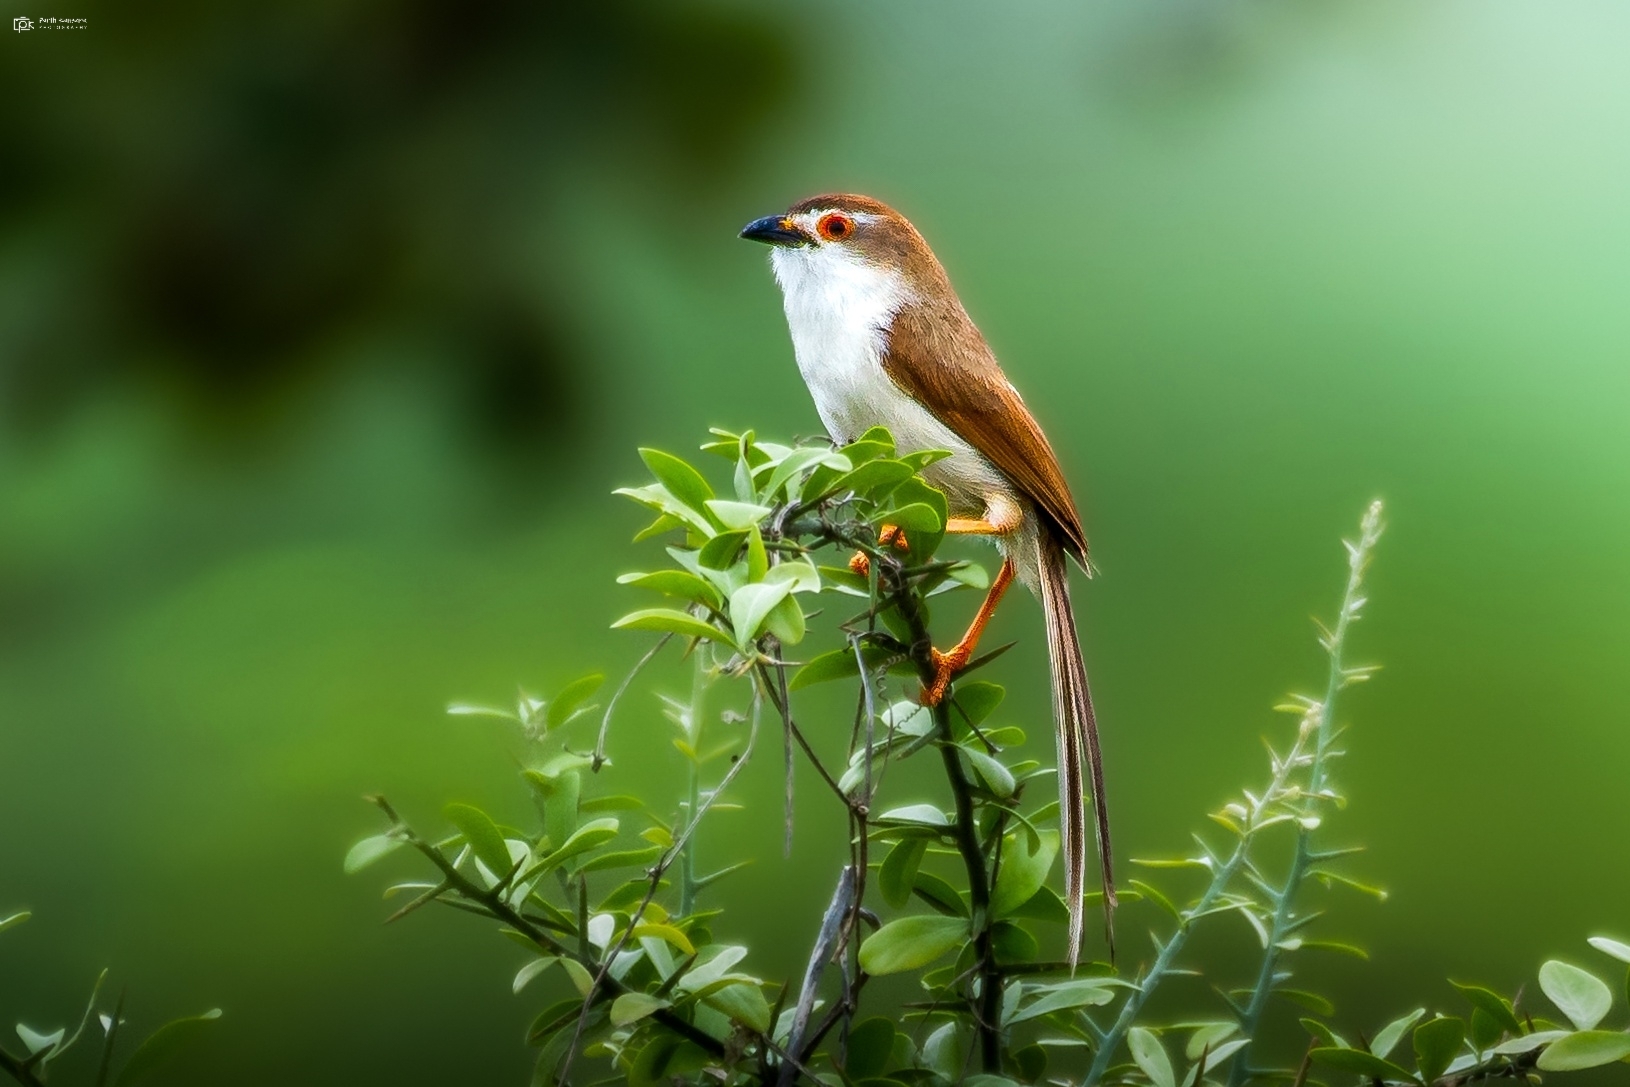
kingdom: Animalia
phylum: Chordata
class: Aves
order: Passeriformes
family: Sylviidae
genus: Chrysomma
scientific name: Chrysomma sinense
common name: Yellow-eyed babbler
